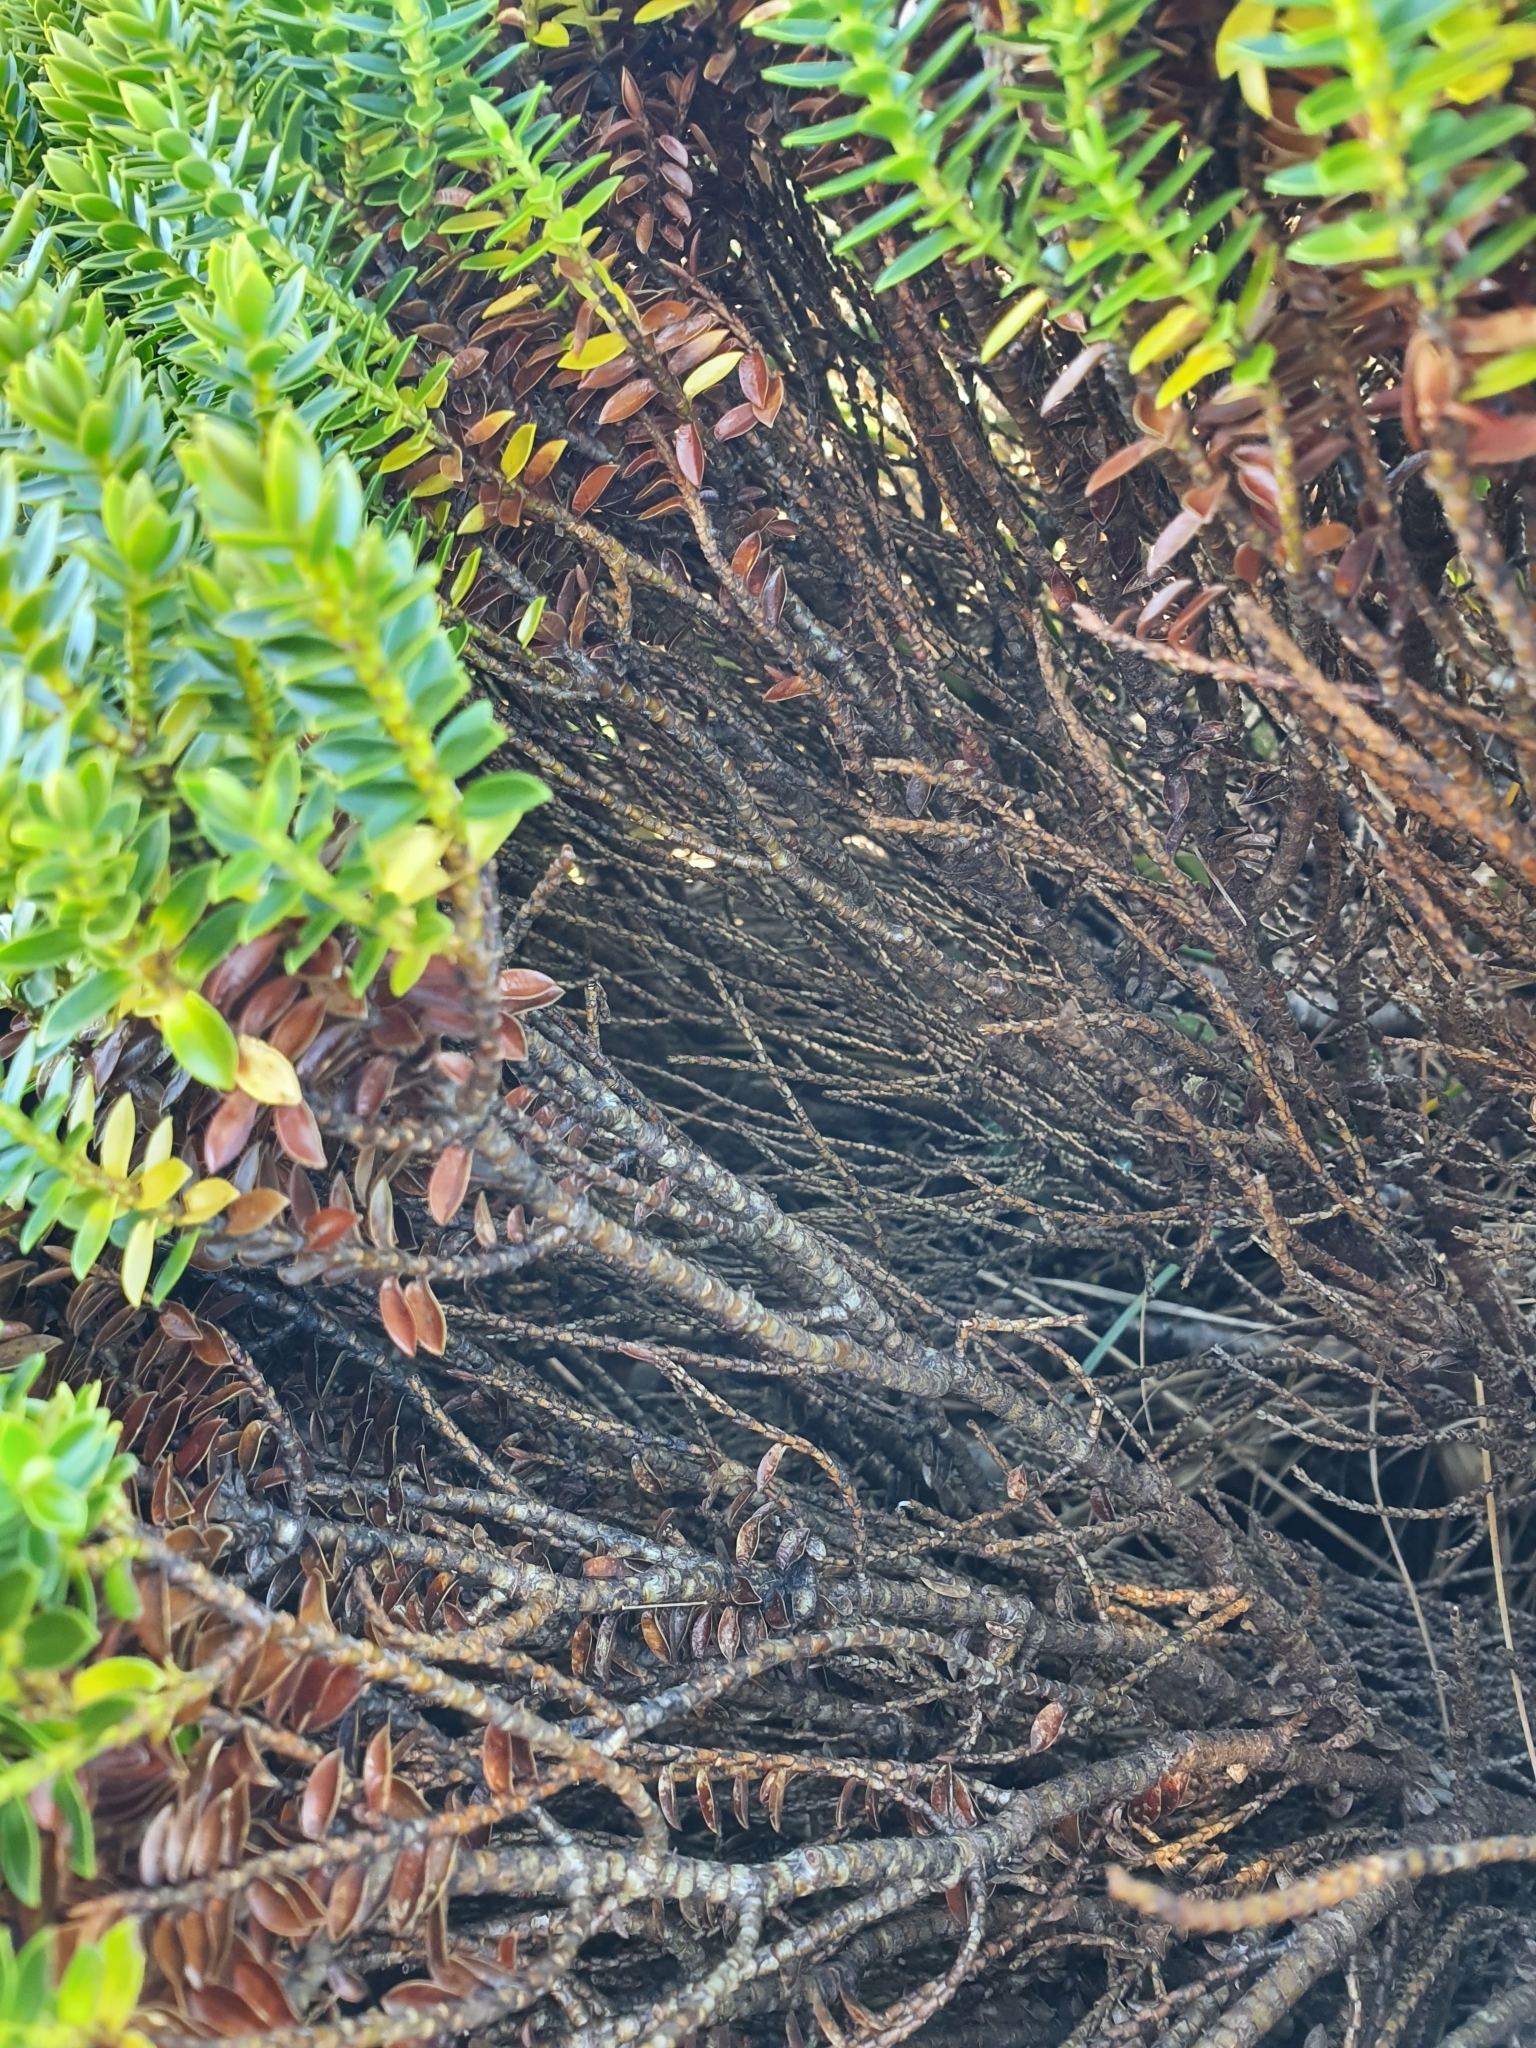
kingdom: Plantae
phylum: Tracheophyta
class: Magnoliopsida
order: Lamiales
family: Plantaginaceae
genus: Veronica
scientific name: Veronica odora
